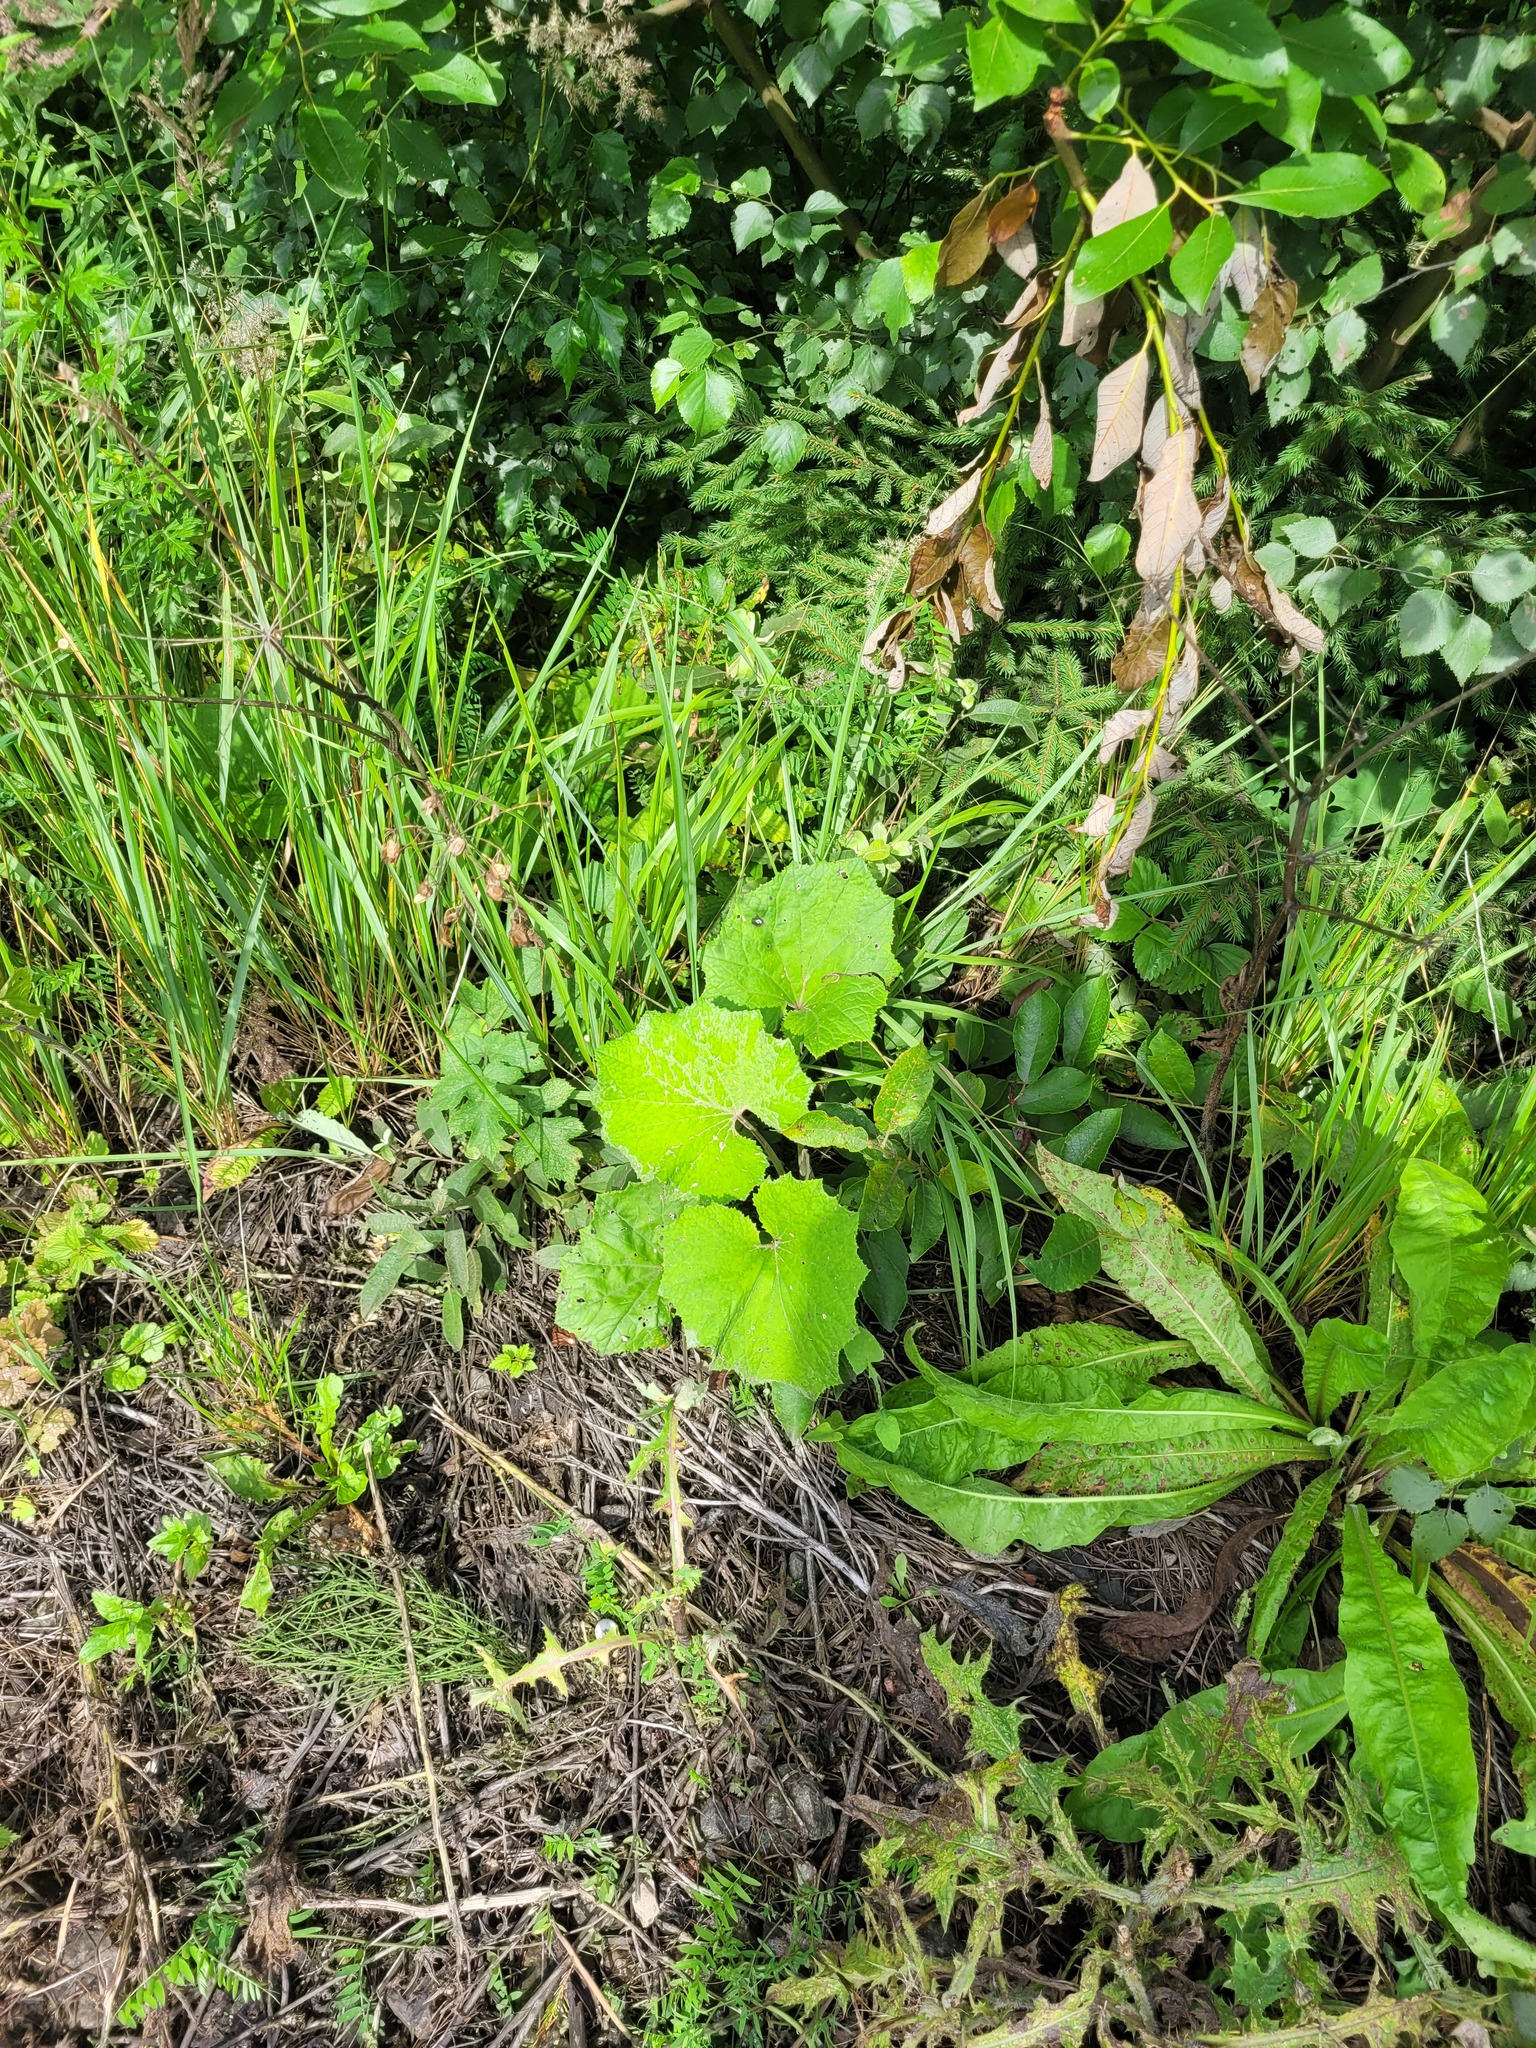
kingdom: Plantae
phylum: Tracheophyta
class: Magnoliopsida
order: Asterales
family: Asteraceae
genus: Tussilago
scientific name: Tussilago farfara
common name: Coltsfoot
